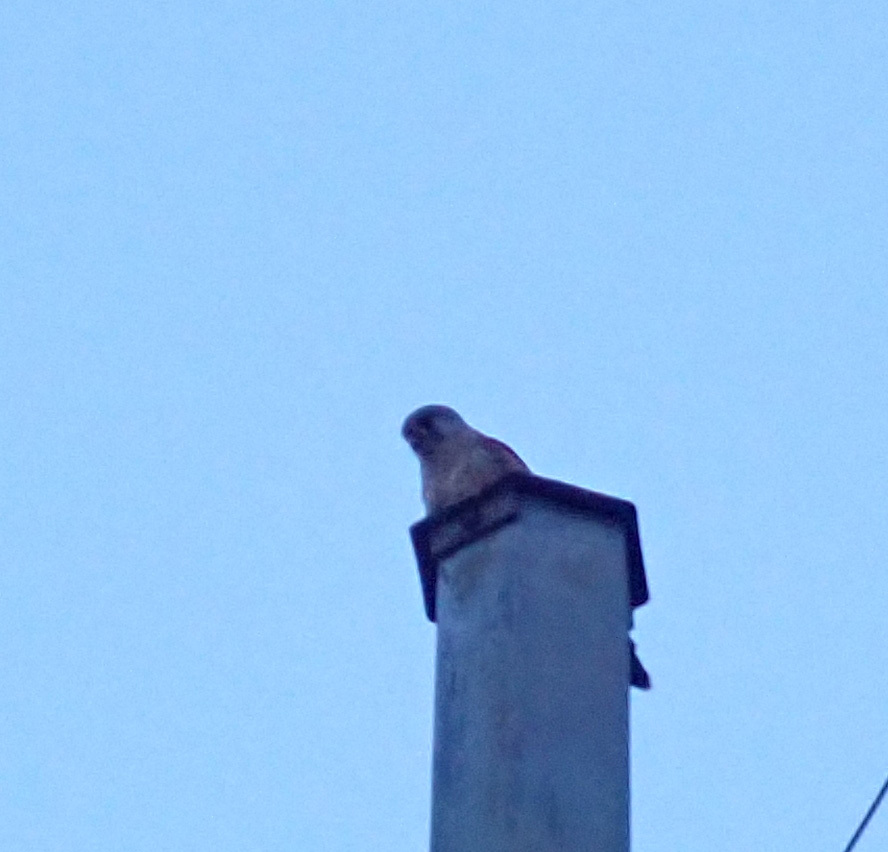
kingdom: Animalia
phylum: Chordata
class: Aves
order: Falconiformes
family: Falconidae
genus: Falco
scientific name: Falco tinnunculus
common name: Common kestrel
